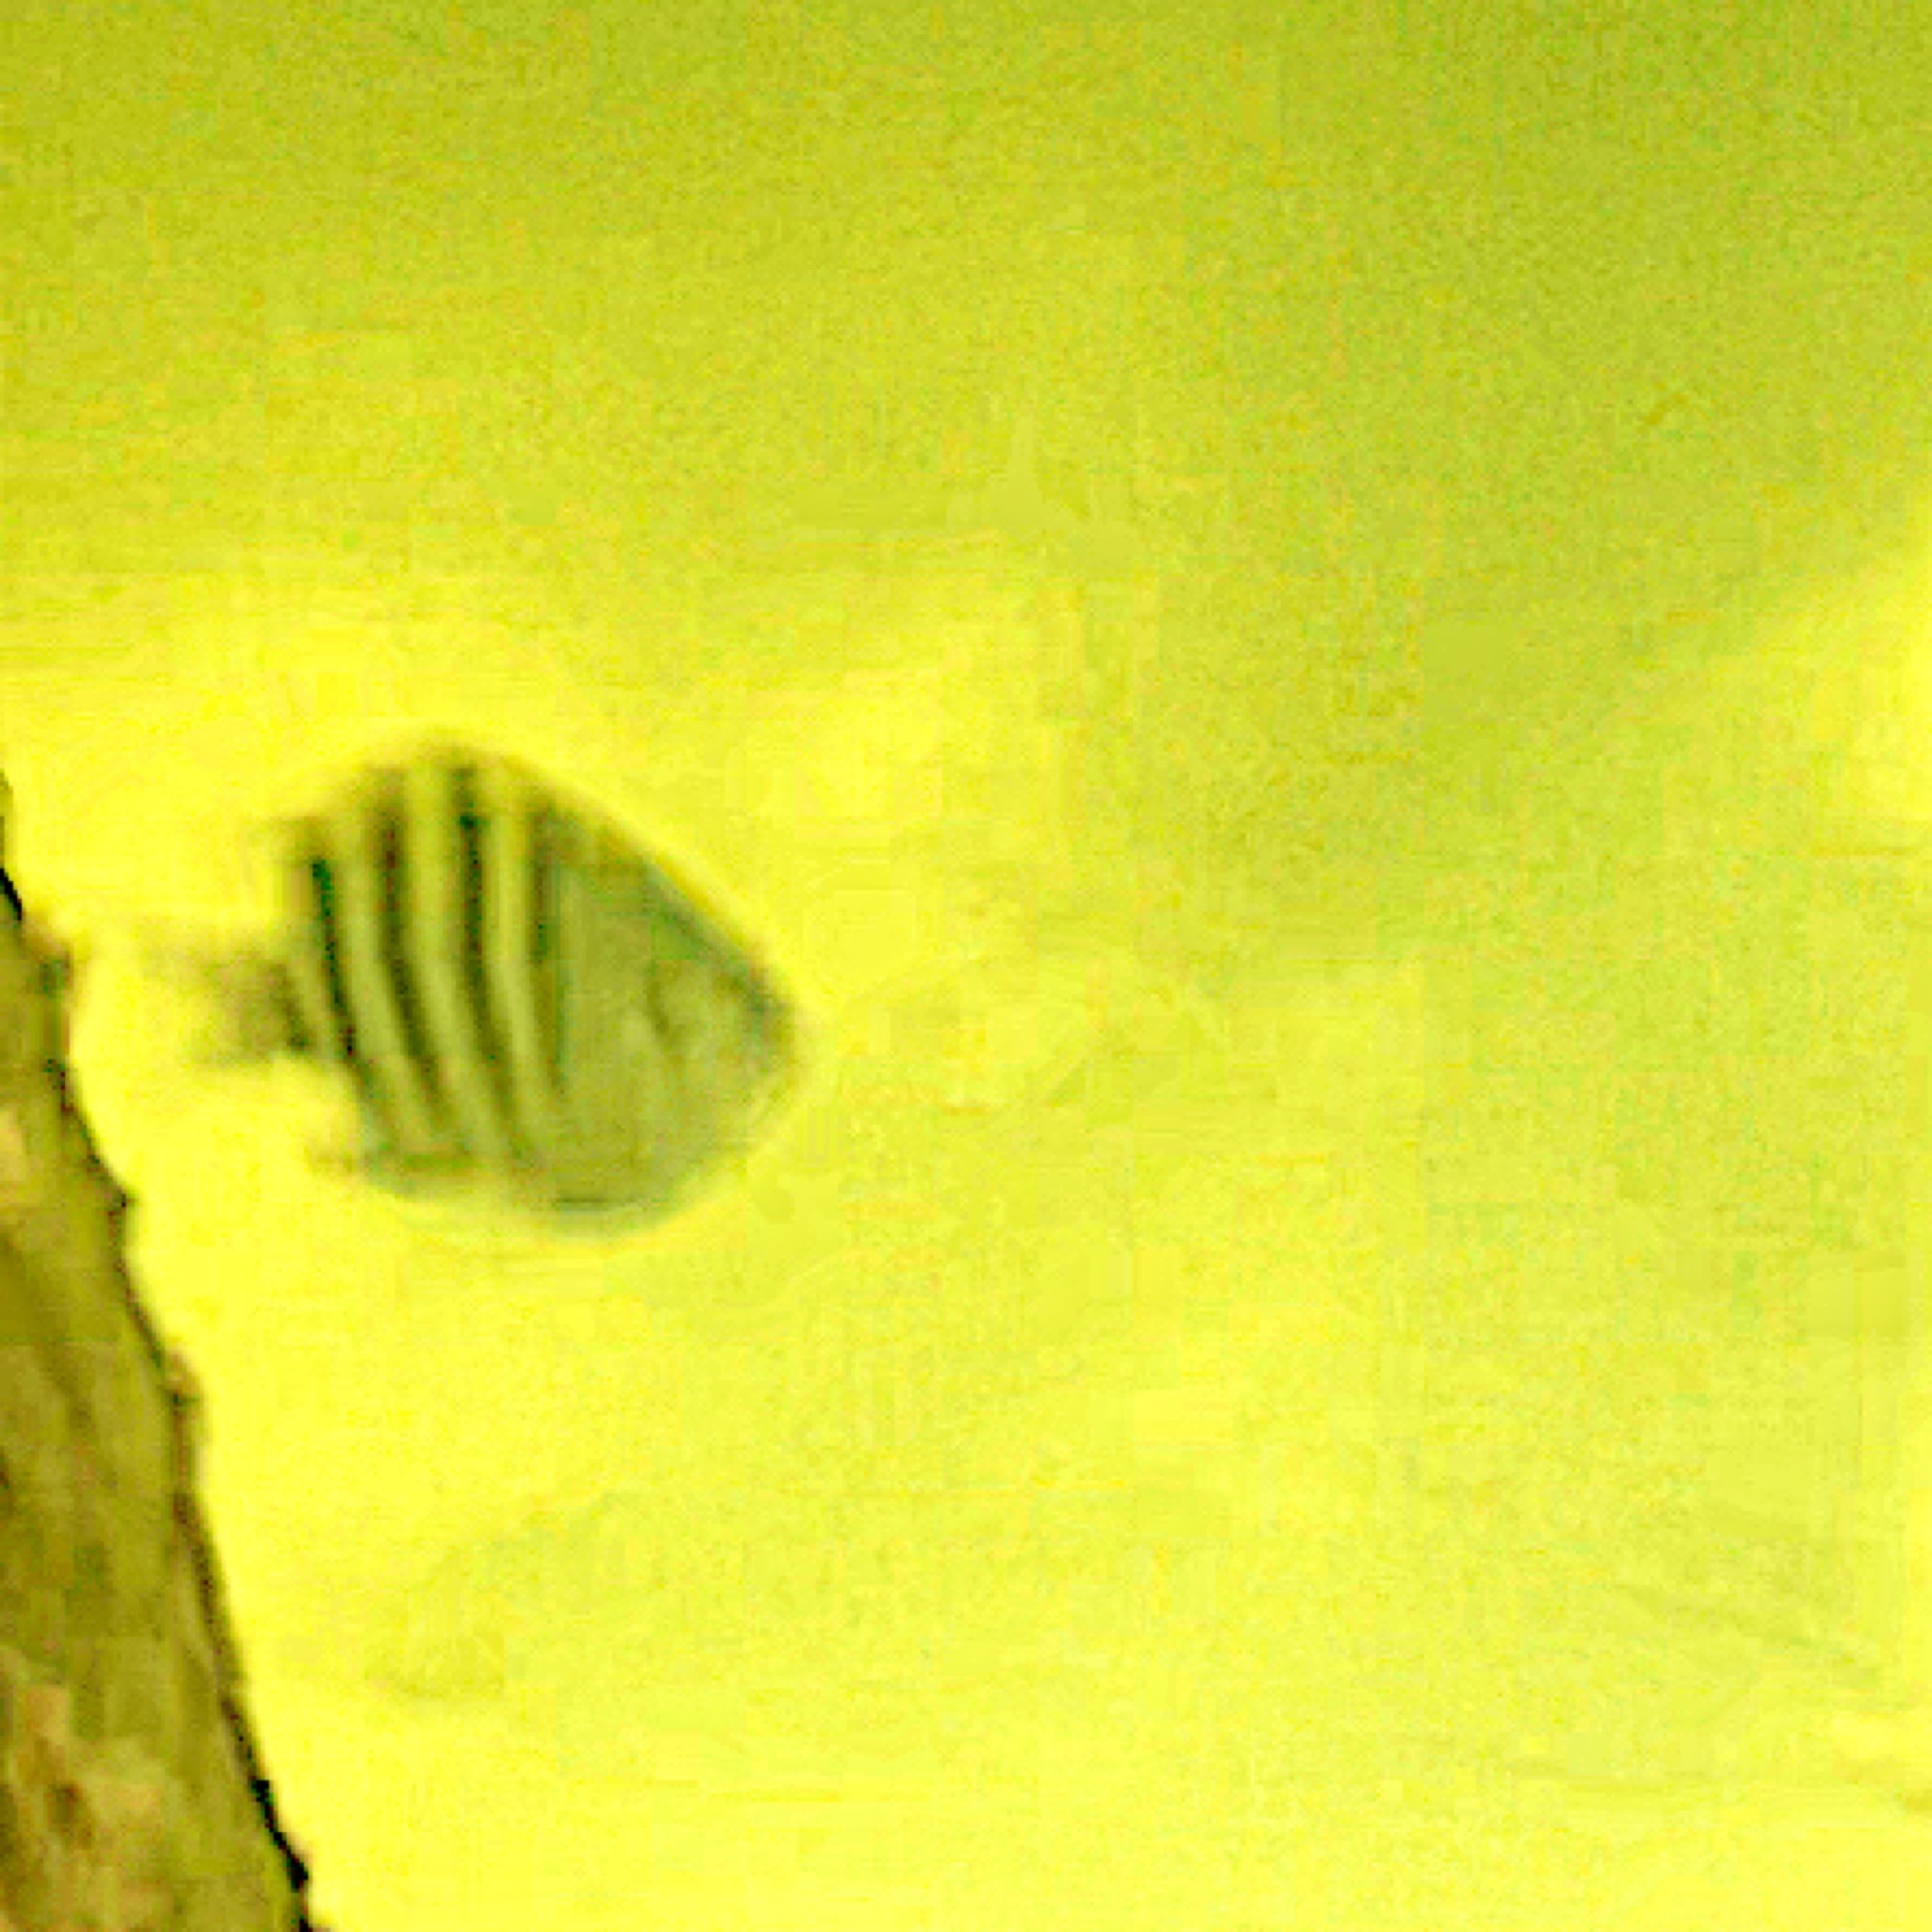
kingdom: Animalia
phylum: Chordata
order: Perciformes
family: Pomacentridae
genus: Abudefduf
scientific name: Abudefduf saxatilis
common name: Sergeant major
